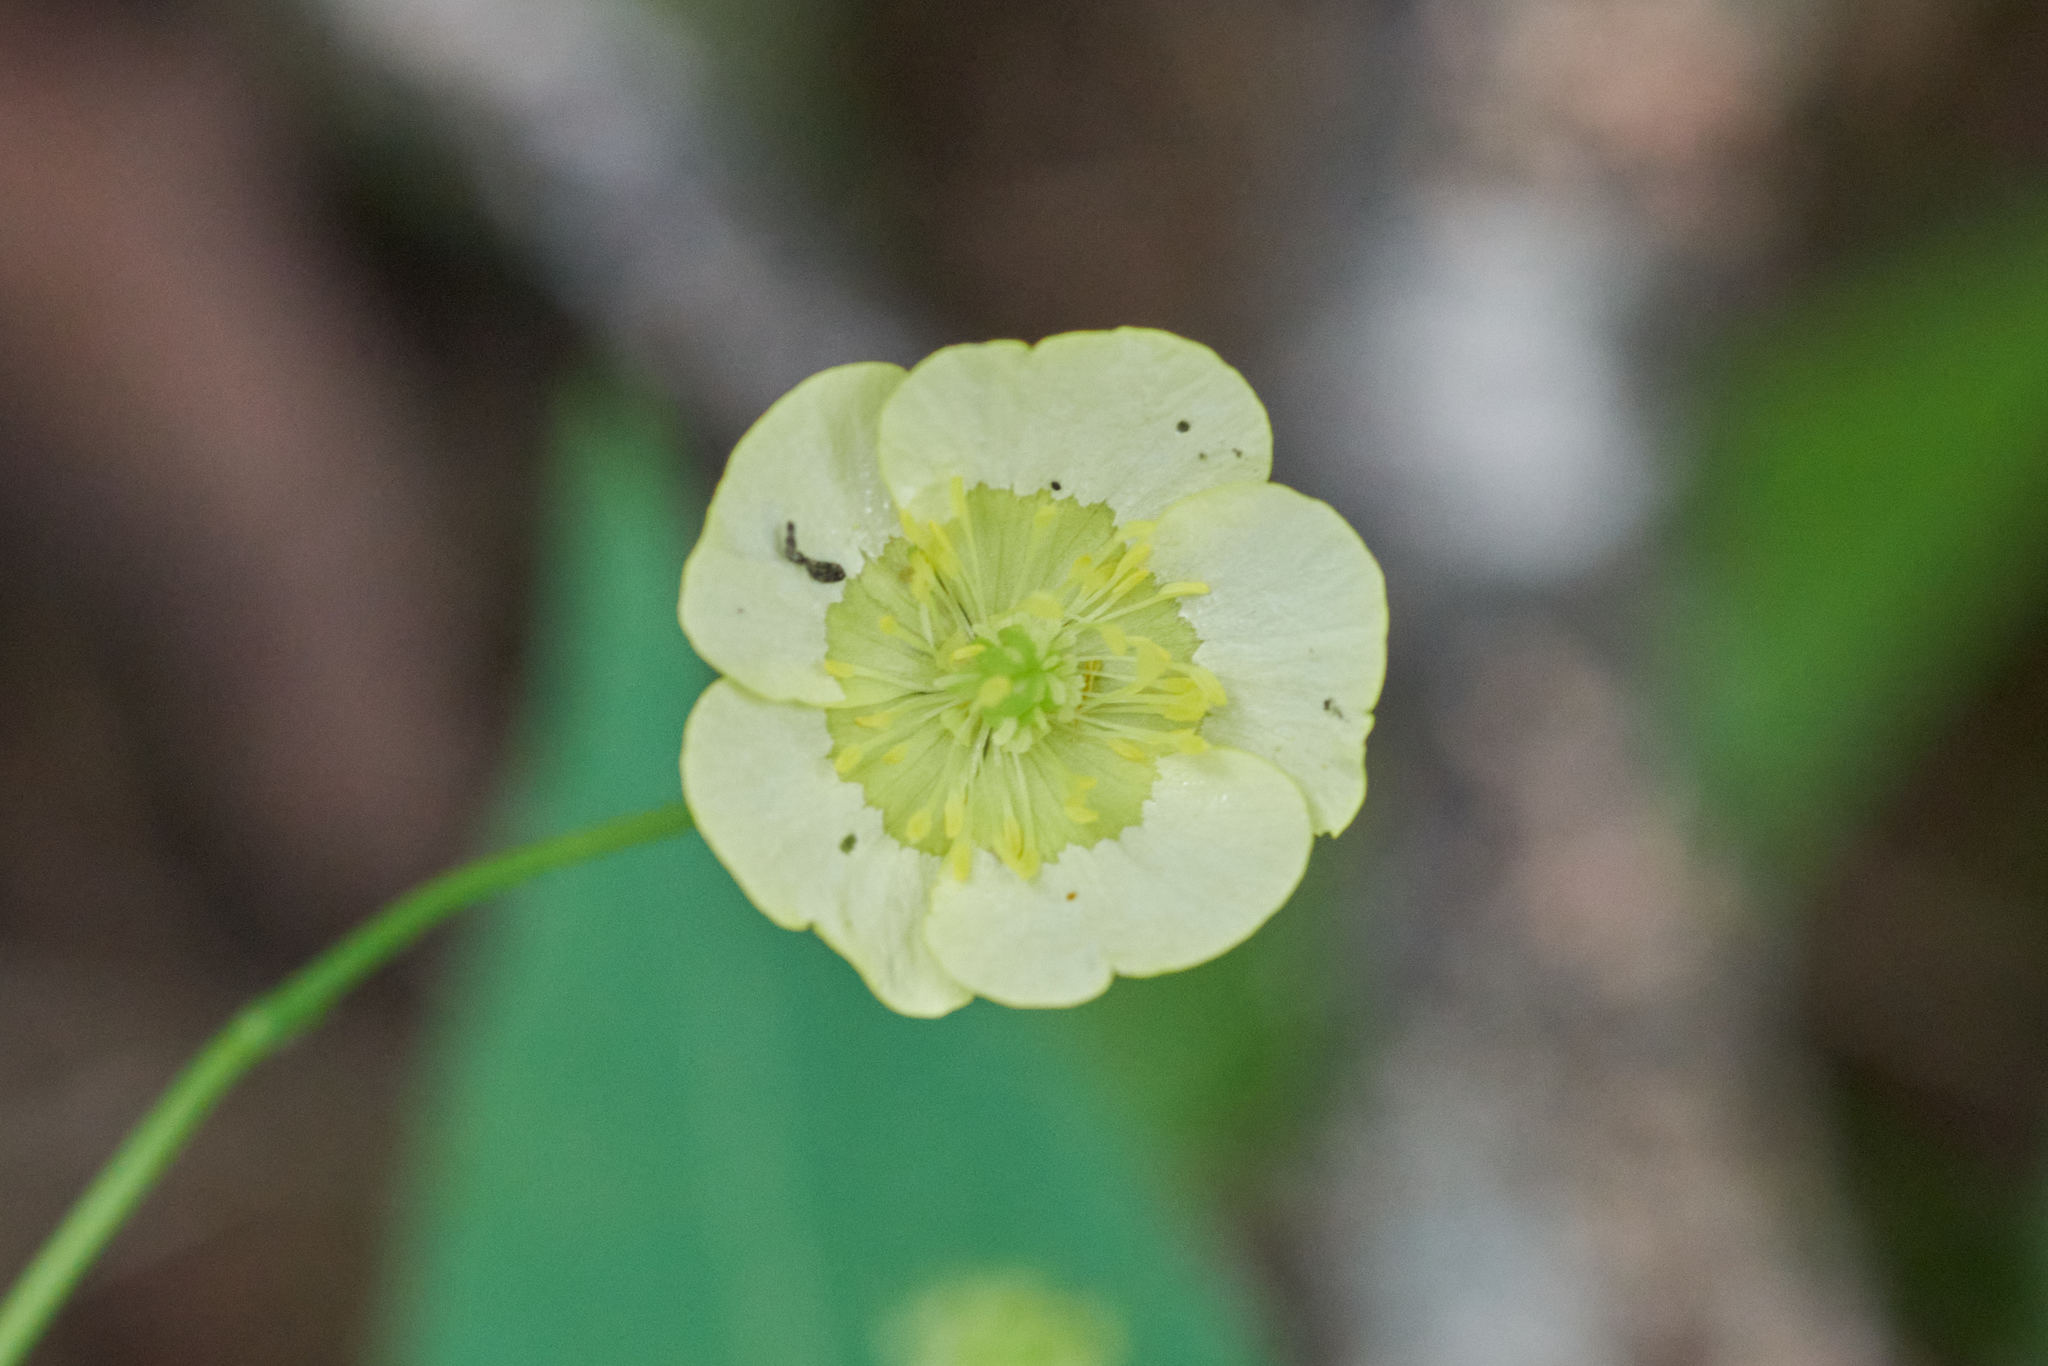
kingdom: Plantae
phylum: Tracheophyta
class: Magnoliopsida
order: Ranunculales
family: Ranunculaceae
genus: Ranunculus
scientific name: Ranunculus acris
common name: Meadow buttercup
